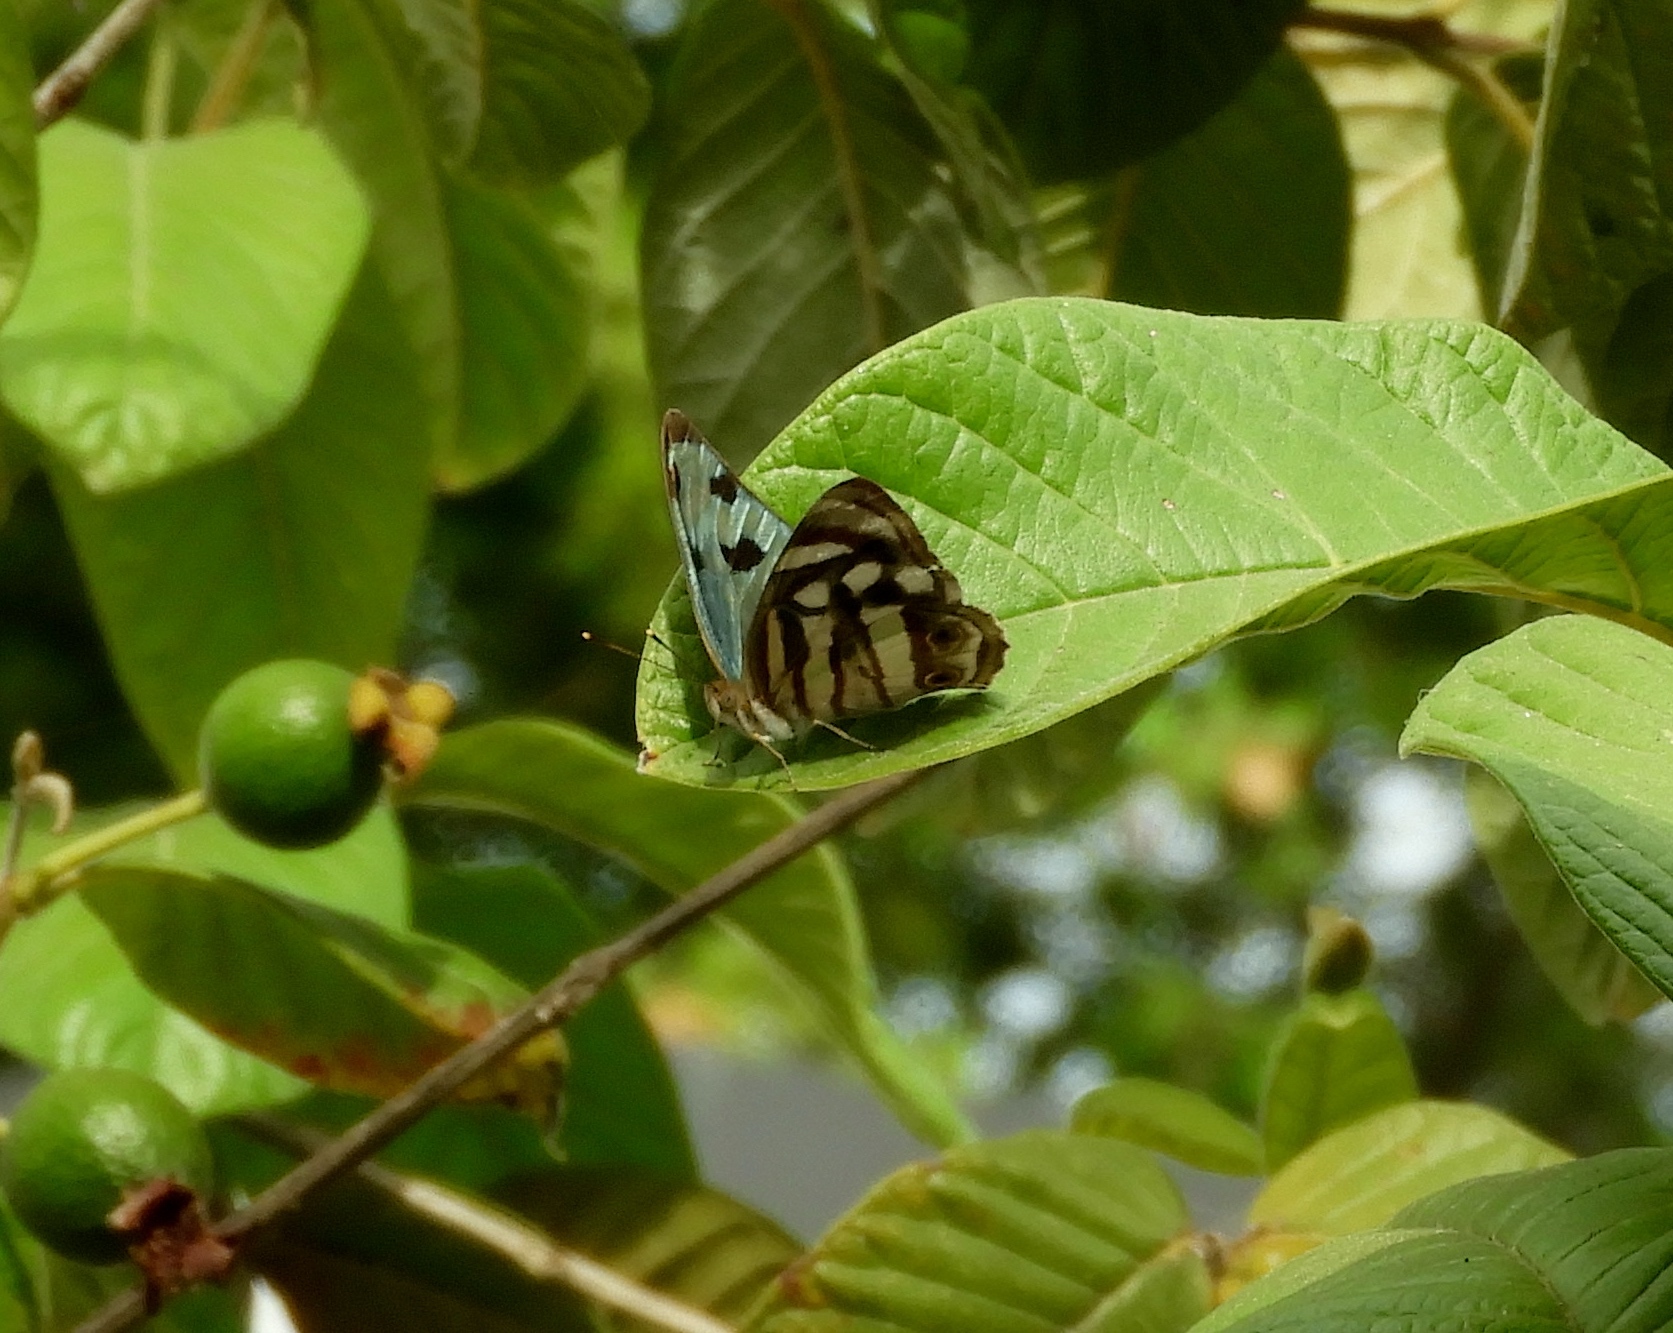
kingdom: Animalia
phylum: Arthropoda
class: Insecta
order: Lepidoptera
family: Nymphalidae
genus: Dynamine
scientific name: Dynamine mylitta
